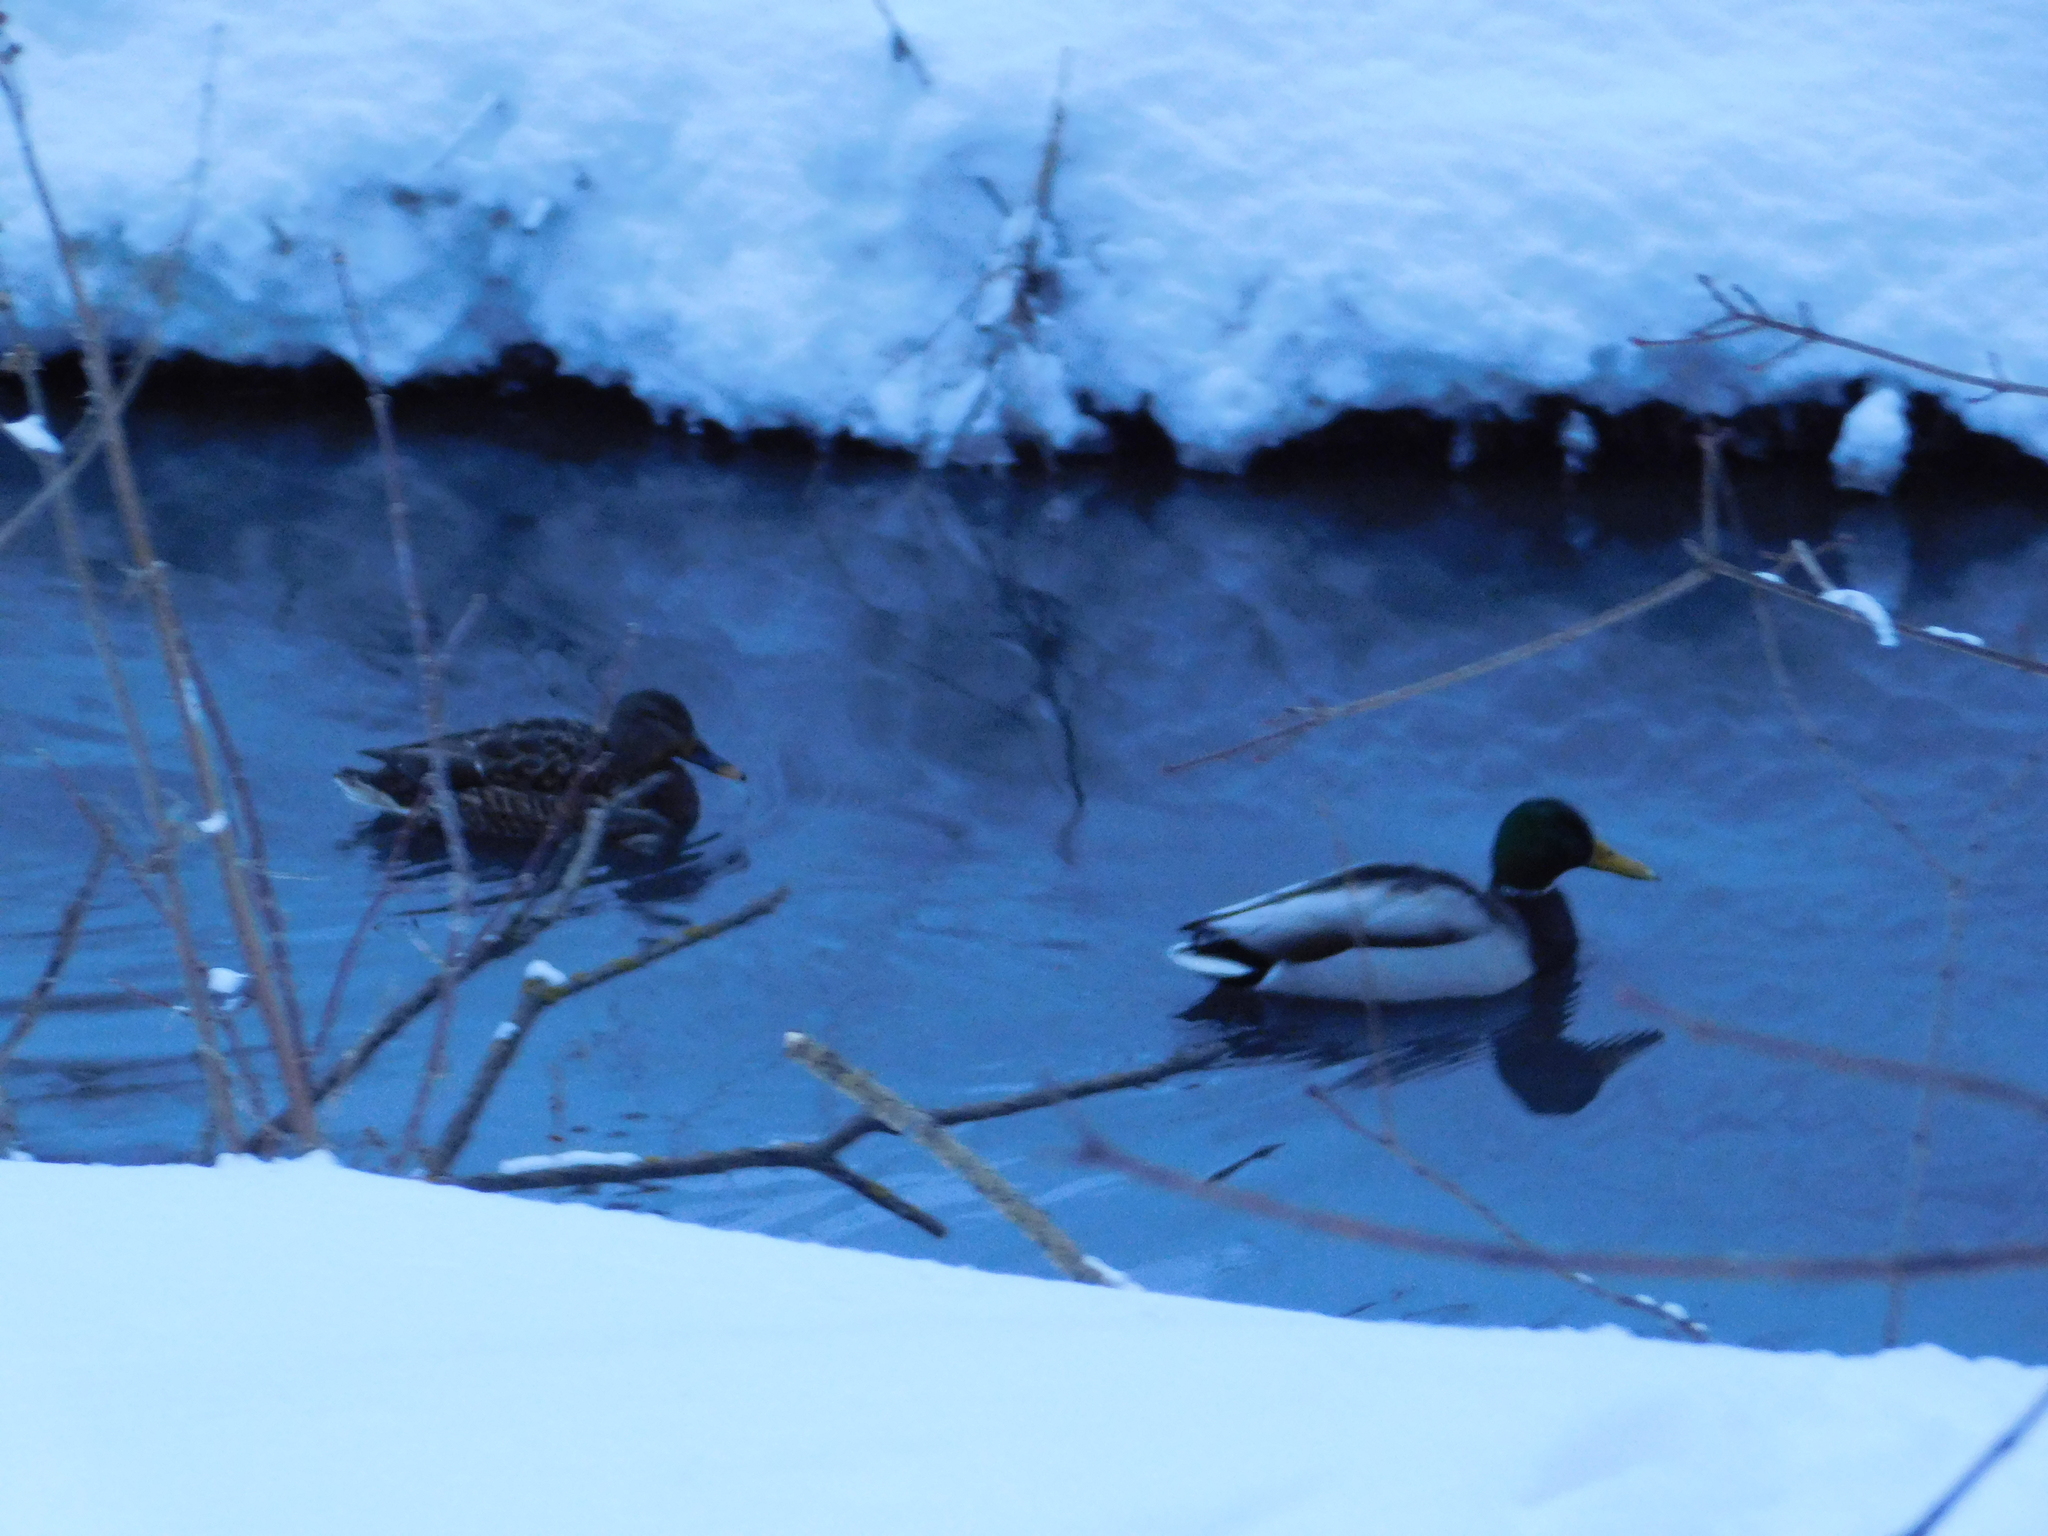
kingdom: Animalia
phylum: Chordata
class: Aves
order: Anseriformes
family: Anatidae
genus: Anas
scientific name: Anas platyrhynchos
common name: Mallard
